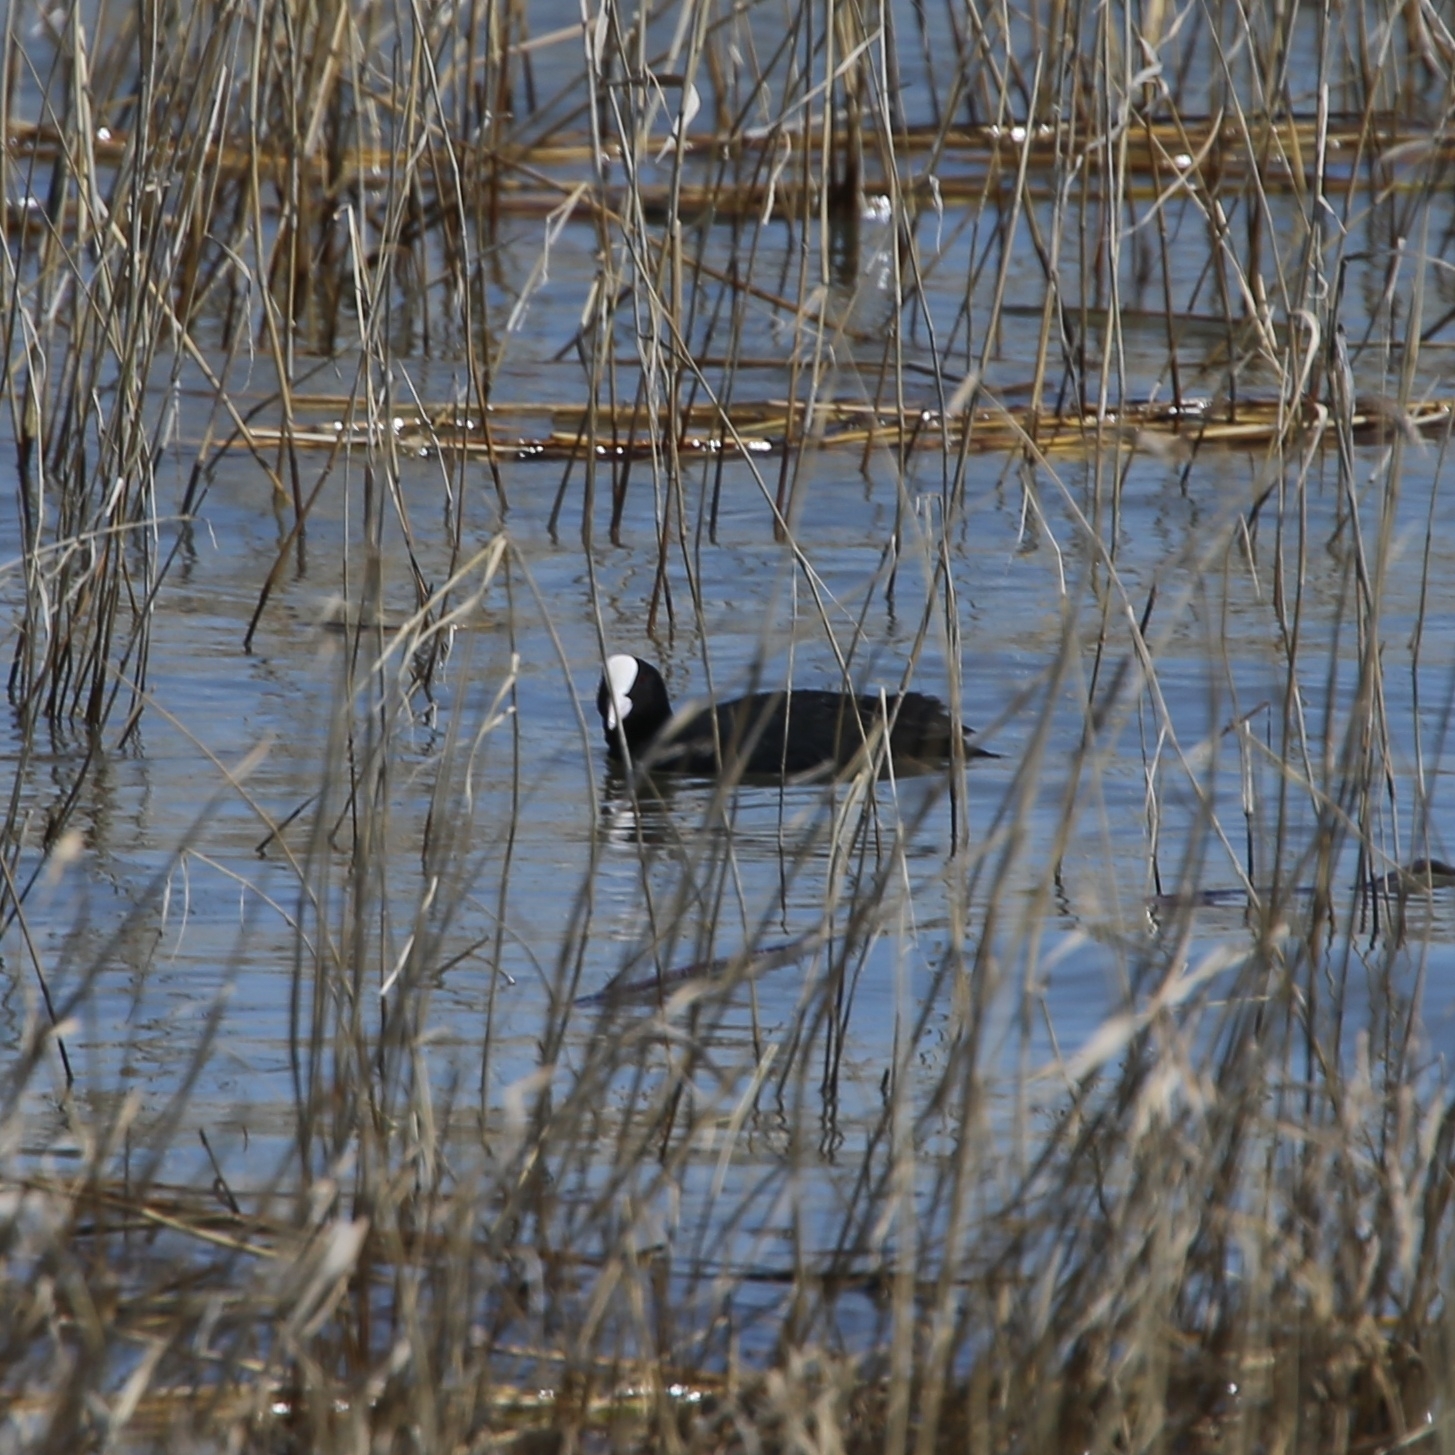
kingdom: Animalia
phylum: Chordata
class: Aves
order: Gruiformes
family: Rallidae
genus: Fulica
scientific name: Fulica atra
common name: Eurasian coot
